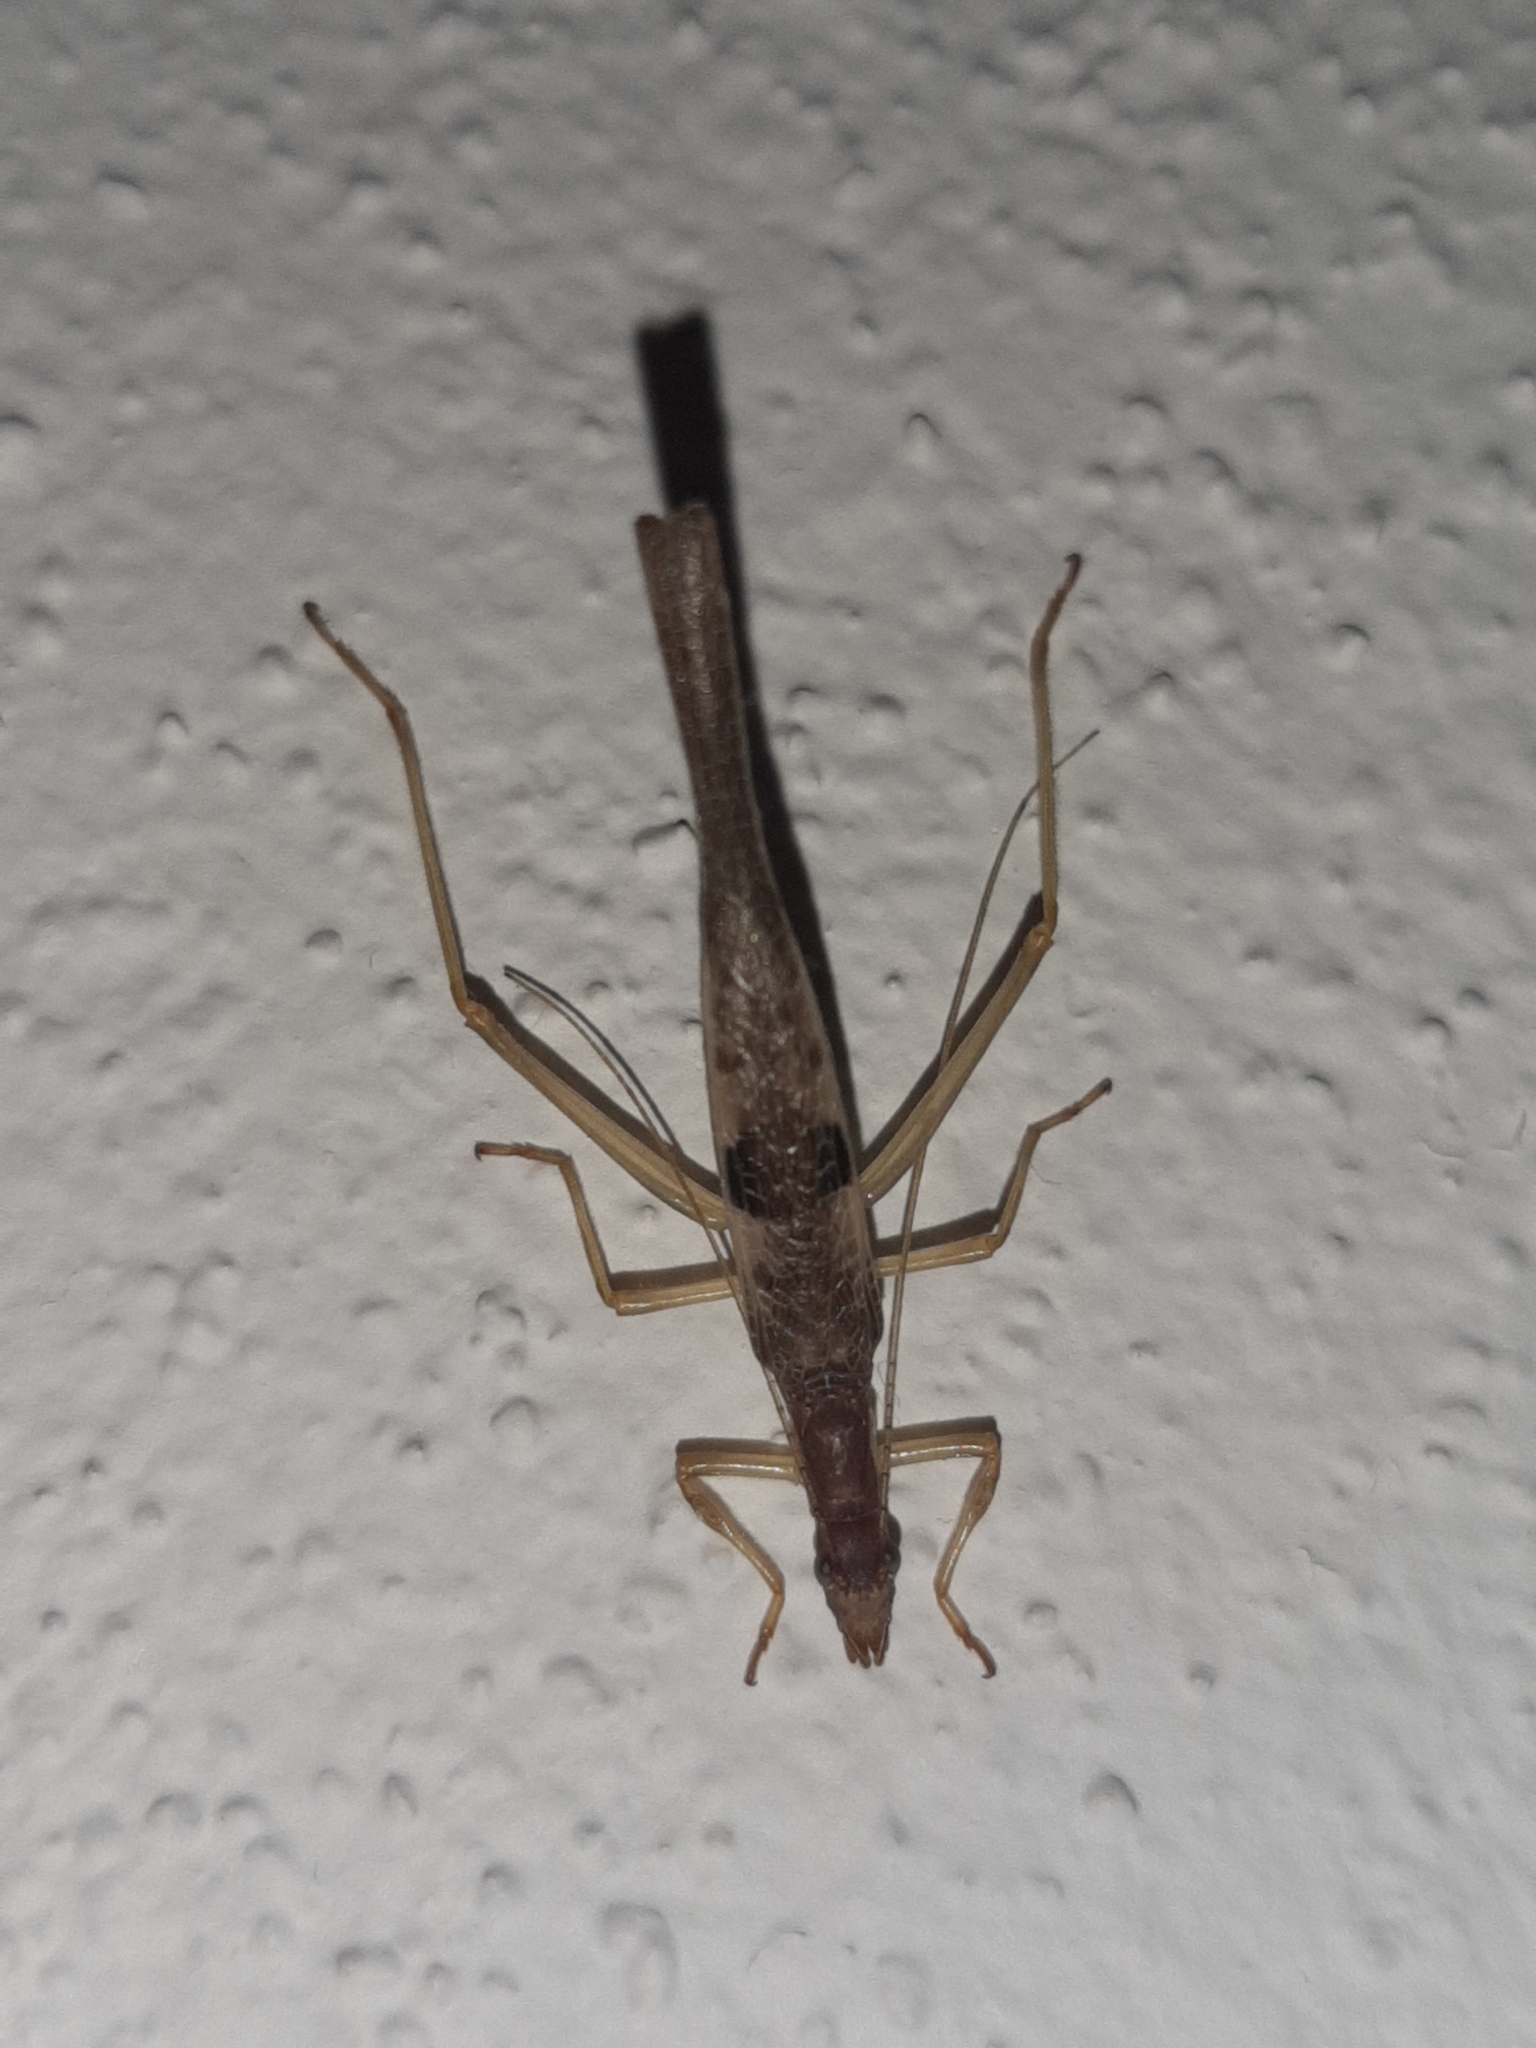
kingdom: Animalia
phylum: Arthropoda
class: Insecta
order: Orthoptera
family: Gryllidae
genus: Neoxabea
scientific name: Neoxabea cerrojesusensis
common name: Nicaragua tree cricket
